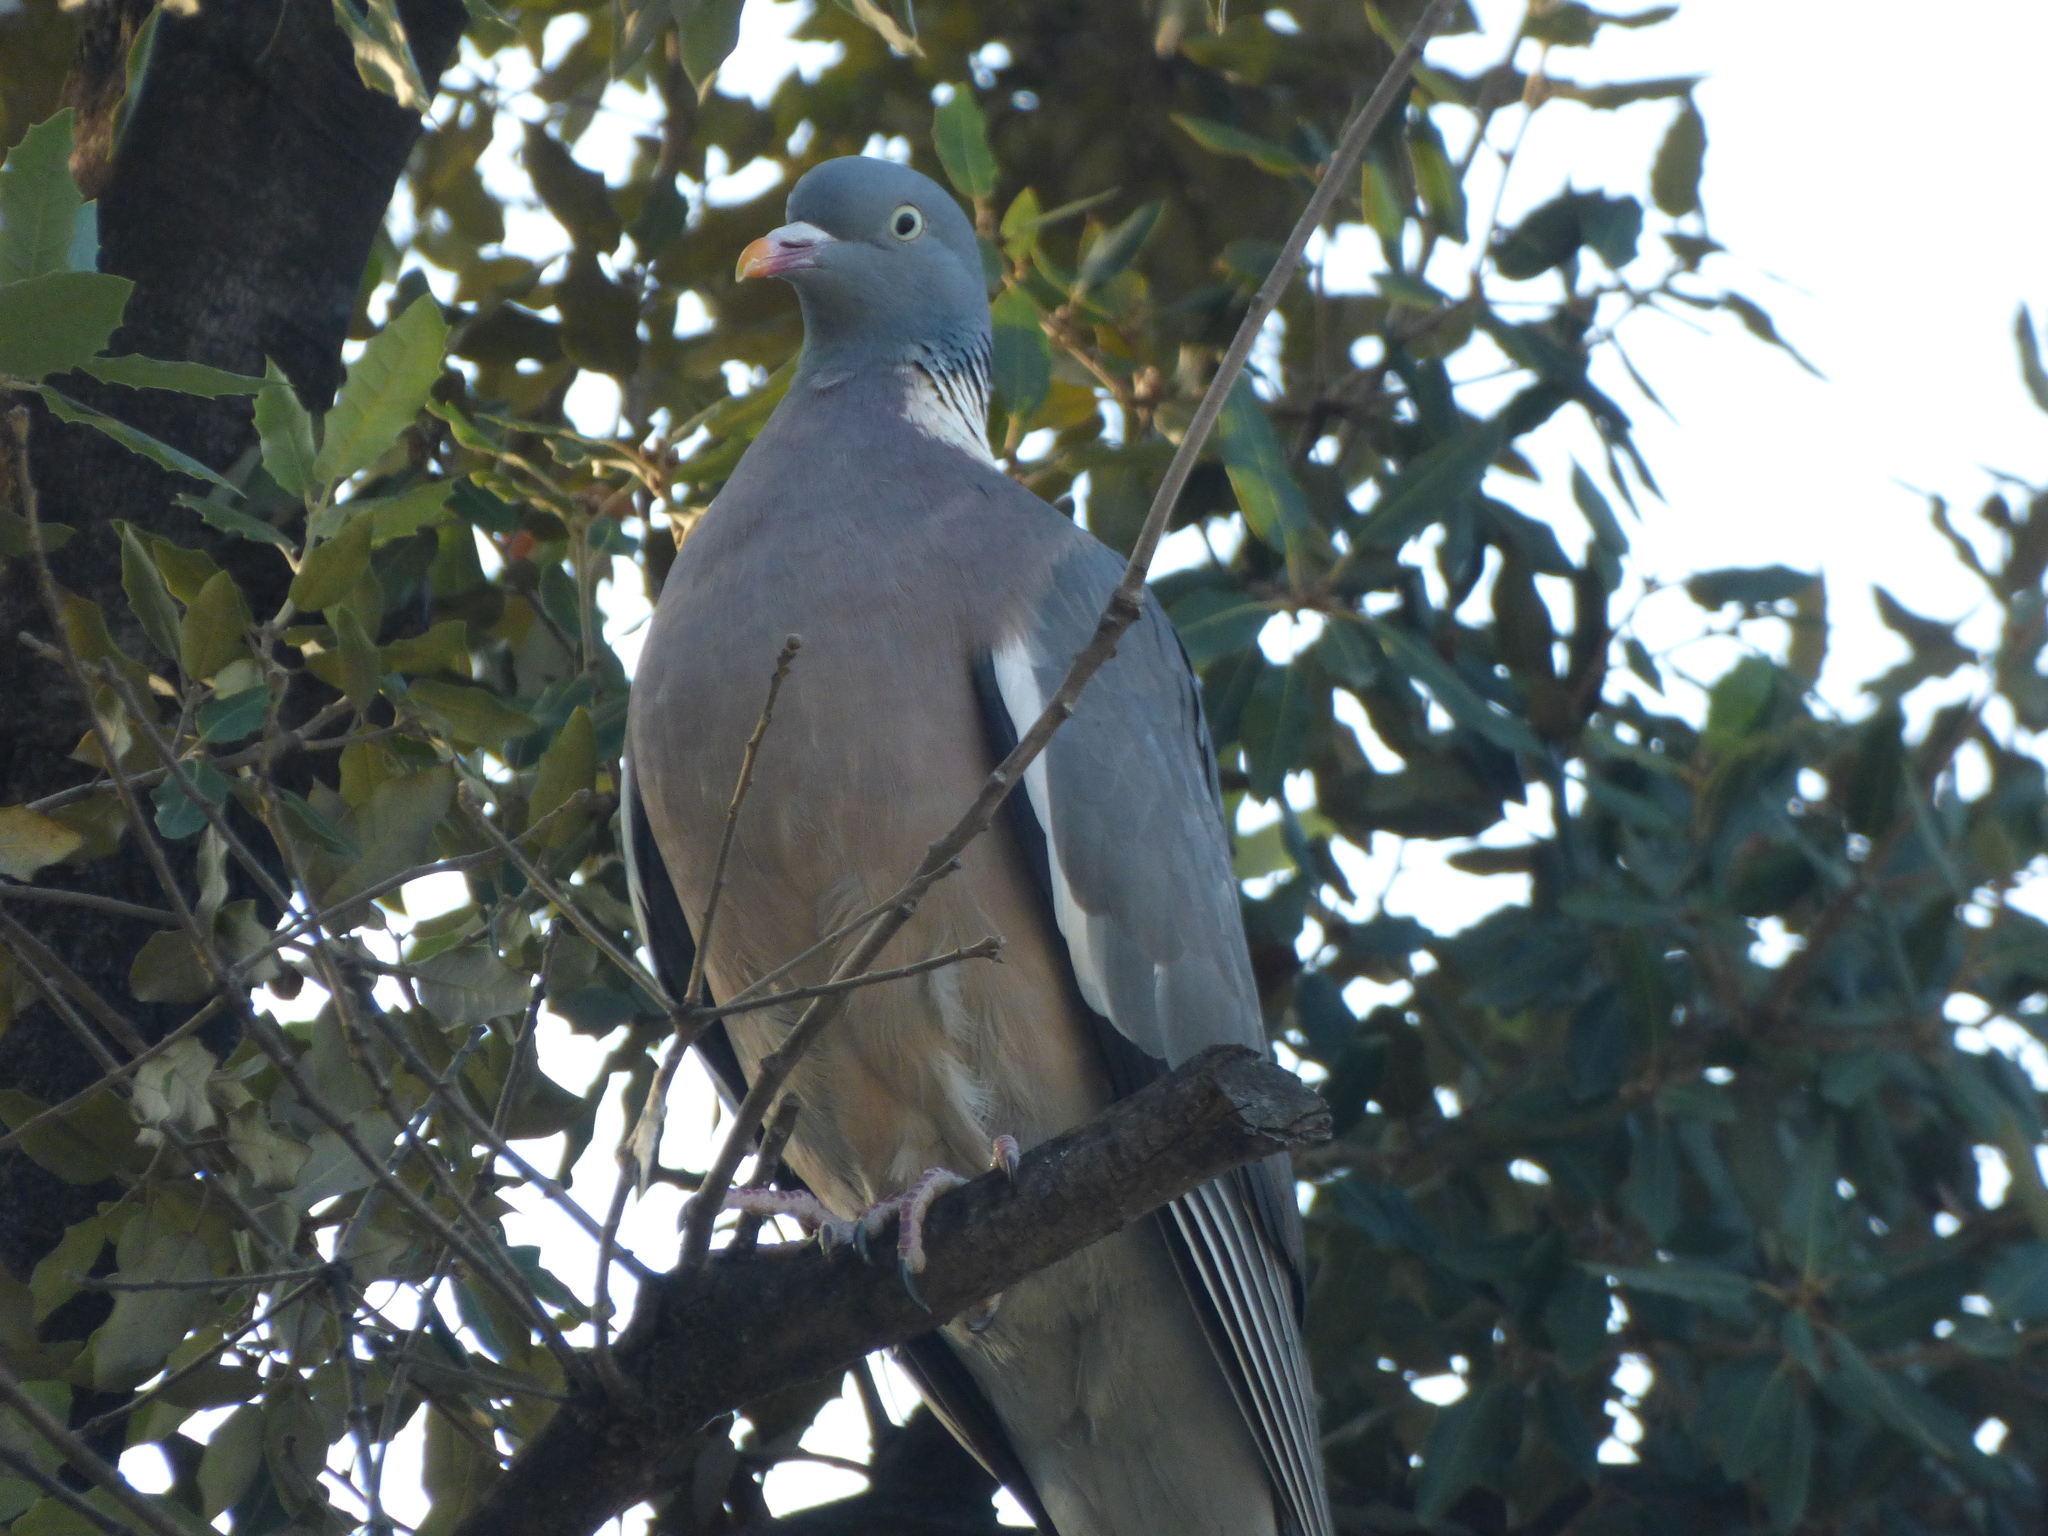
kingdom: Animalia
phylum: Chordata
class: Aves
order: Columbiformes
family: Columbidae
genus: Columba
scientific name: Columba palumbus
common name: Common wood pigeon
